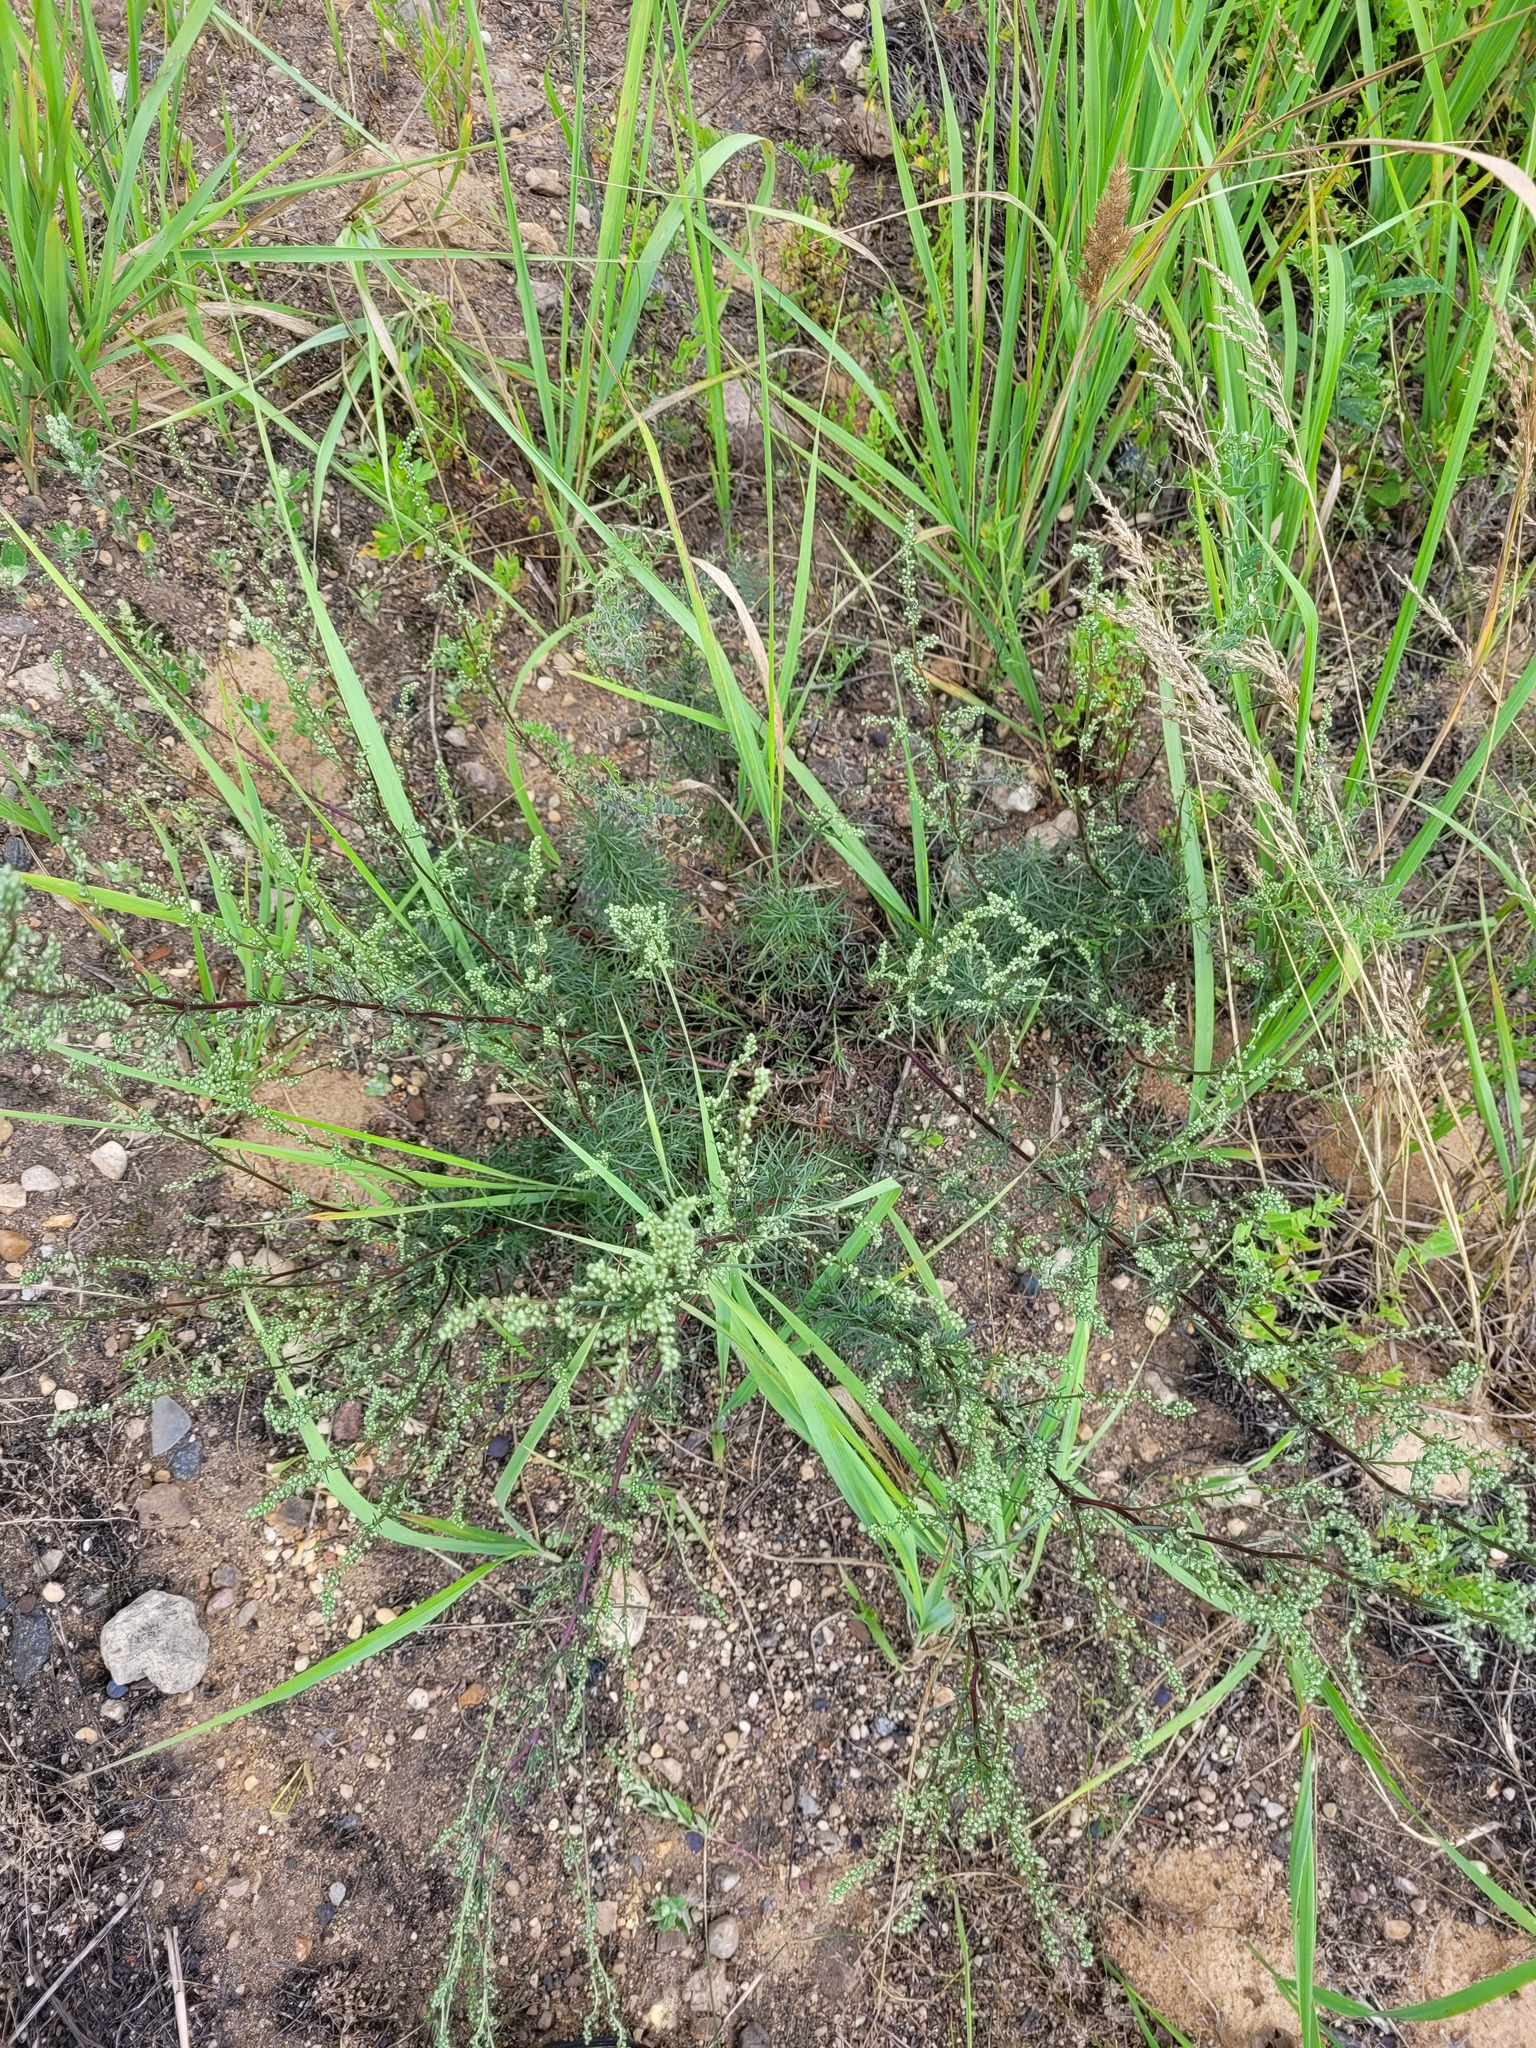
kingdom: Plantae
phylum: Tracheophyta
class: Magnoliopsida
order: Asterales
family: Asteraceae
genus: Artemisia
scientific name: Artemisia campestris
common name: Field wormwood
